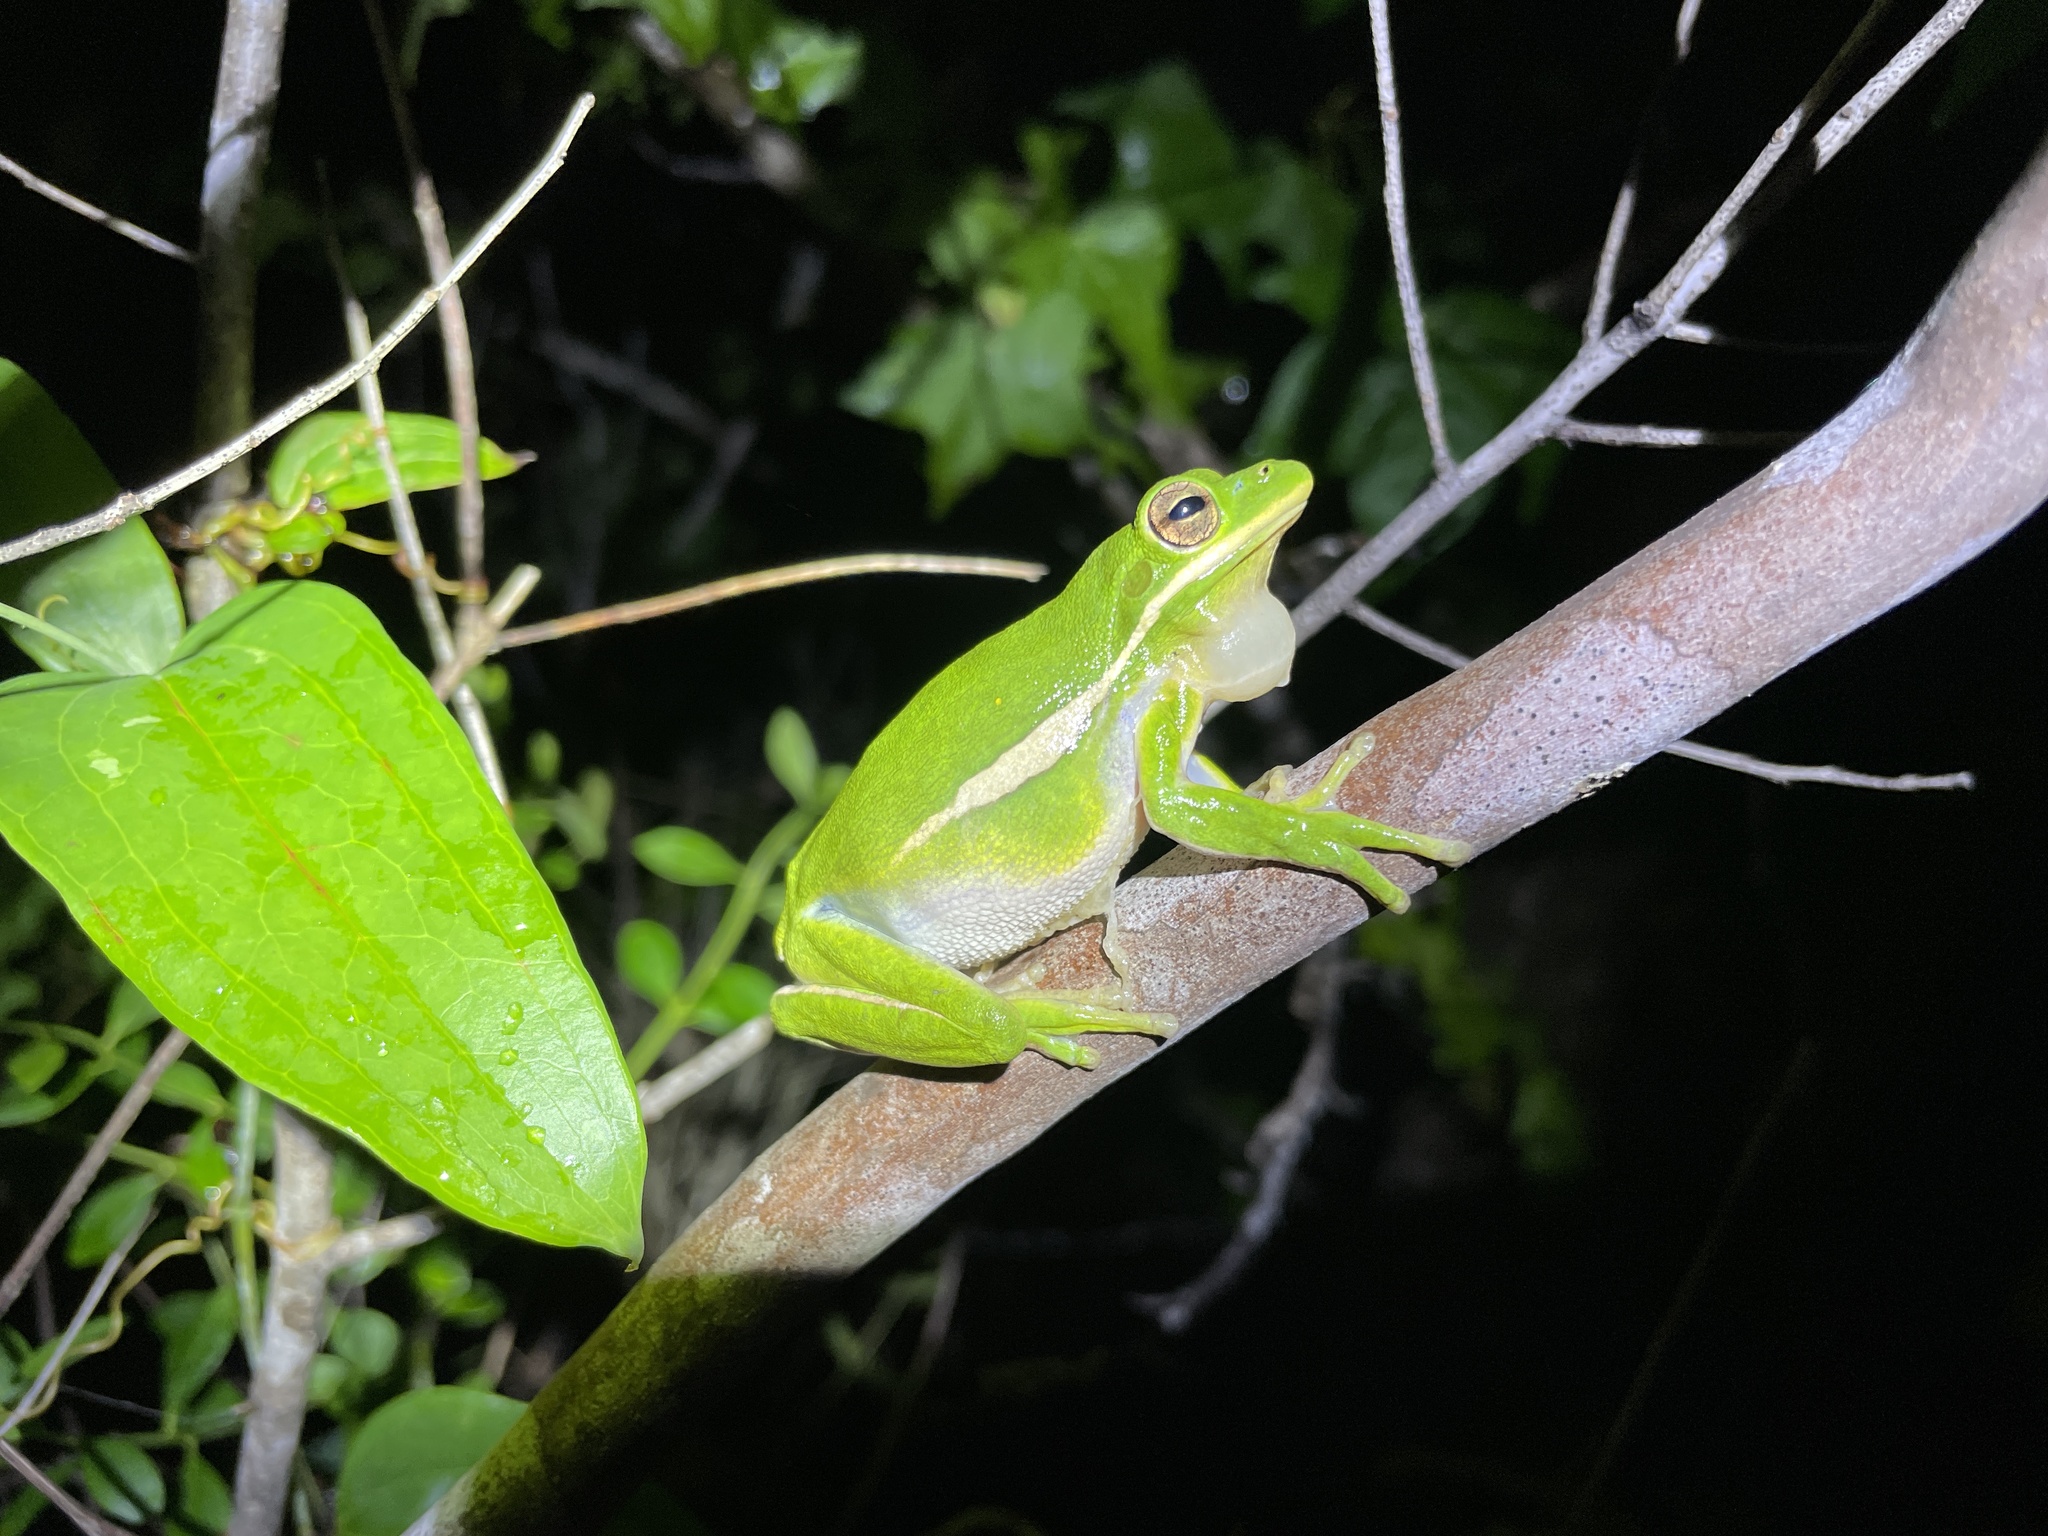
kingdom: Animalia
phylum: Chordata
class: Amphibia
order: Anura
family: Hylidae
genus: Dryophytes
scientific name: Dryophytes cinereus
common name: Green treefrog
